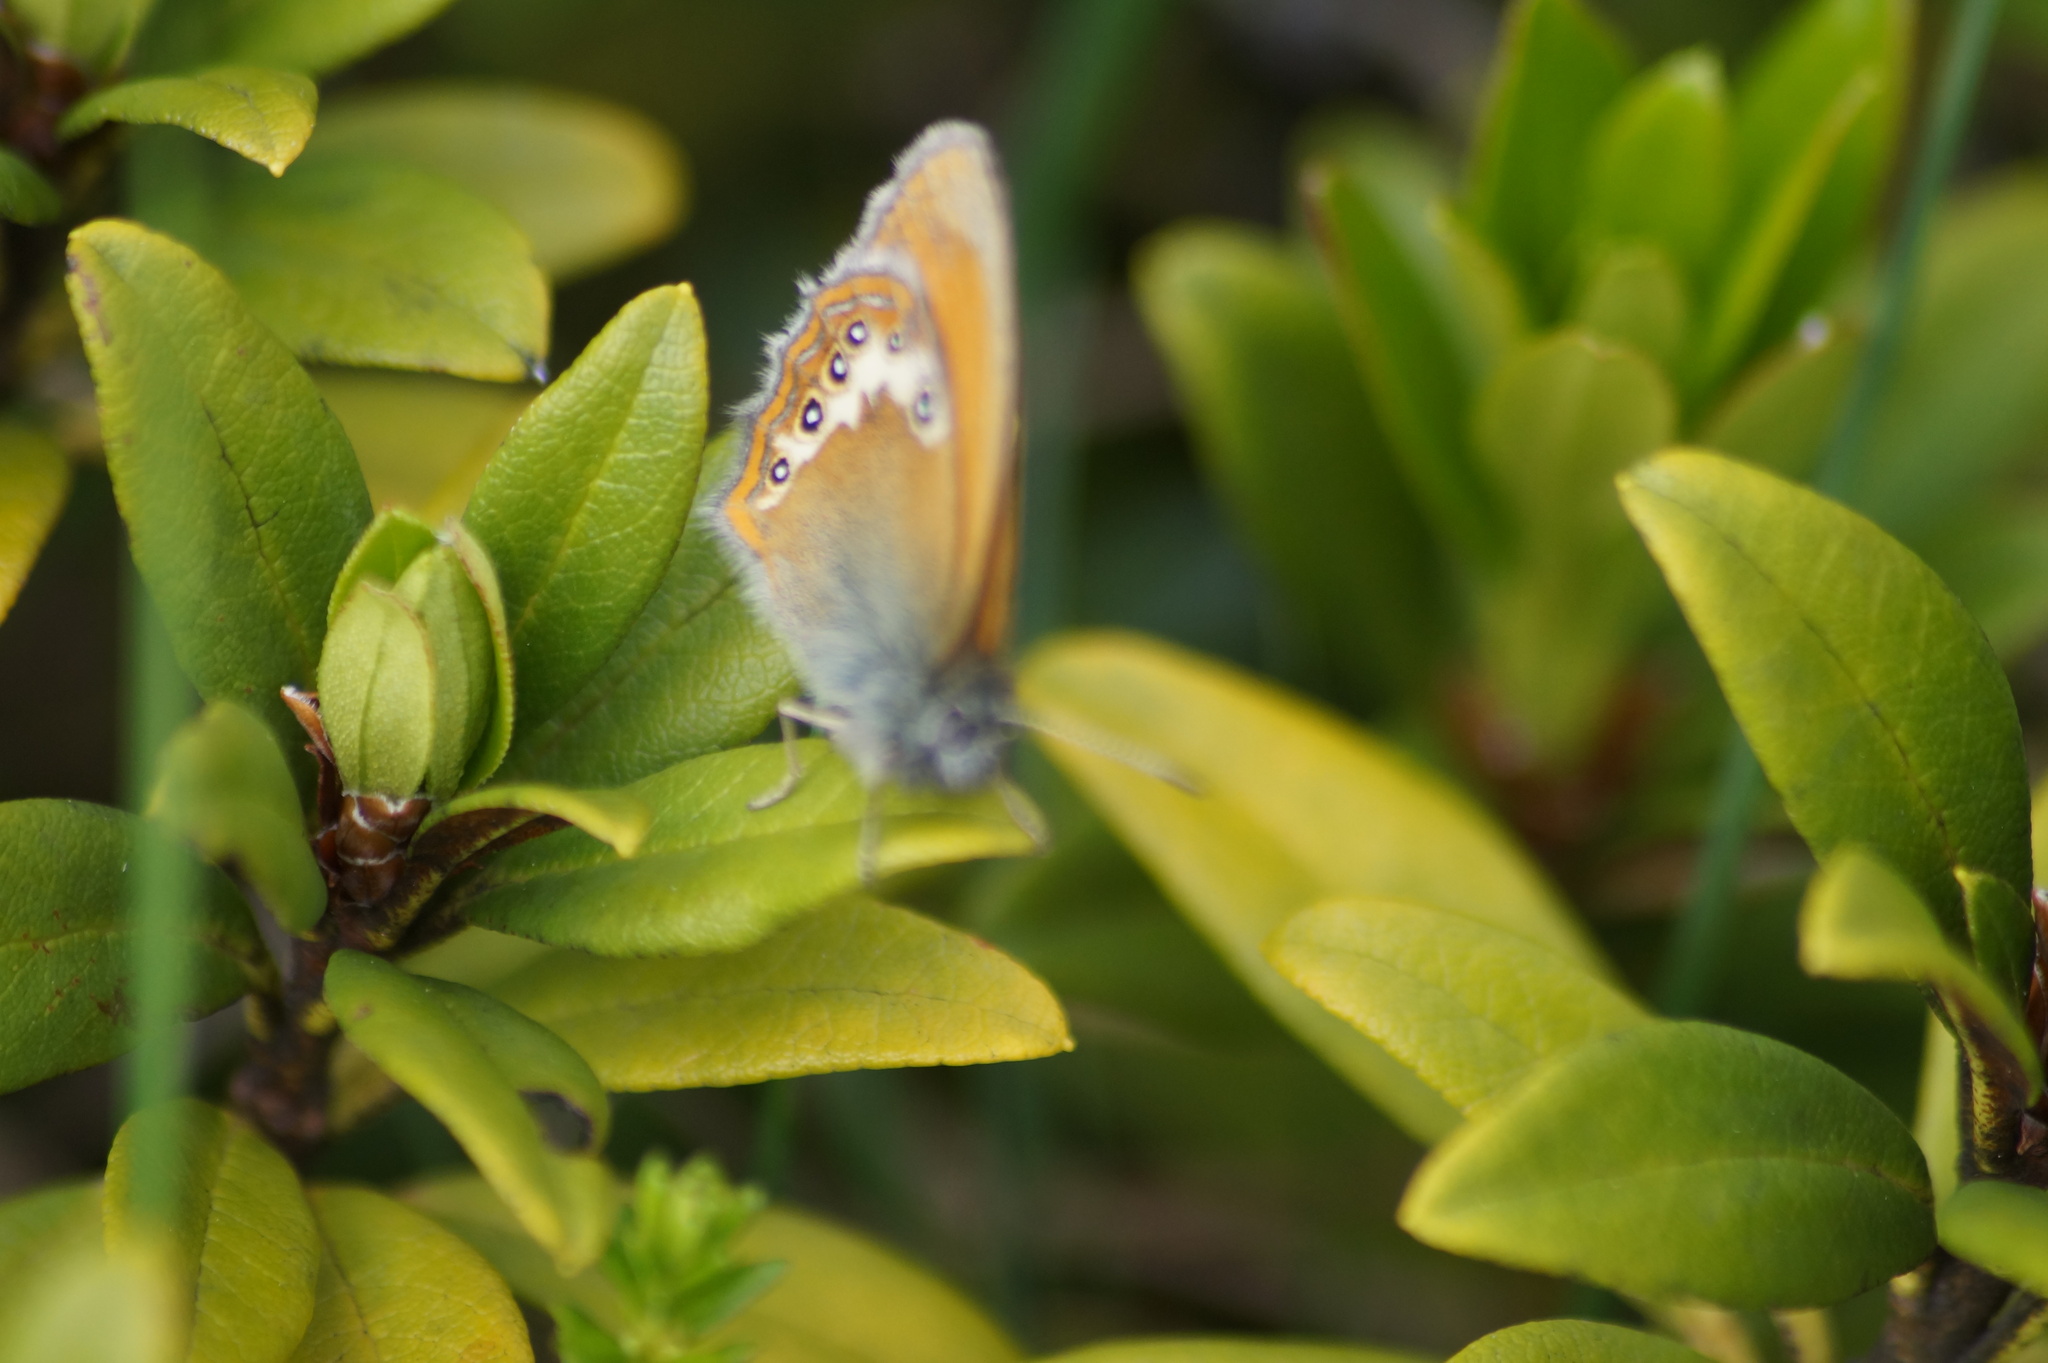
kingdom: Animalia
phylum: Arthropoda
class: Insecta
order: Lepidoptera
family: Nymphalidae
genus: Coenonympha
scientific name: Coenonympha
